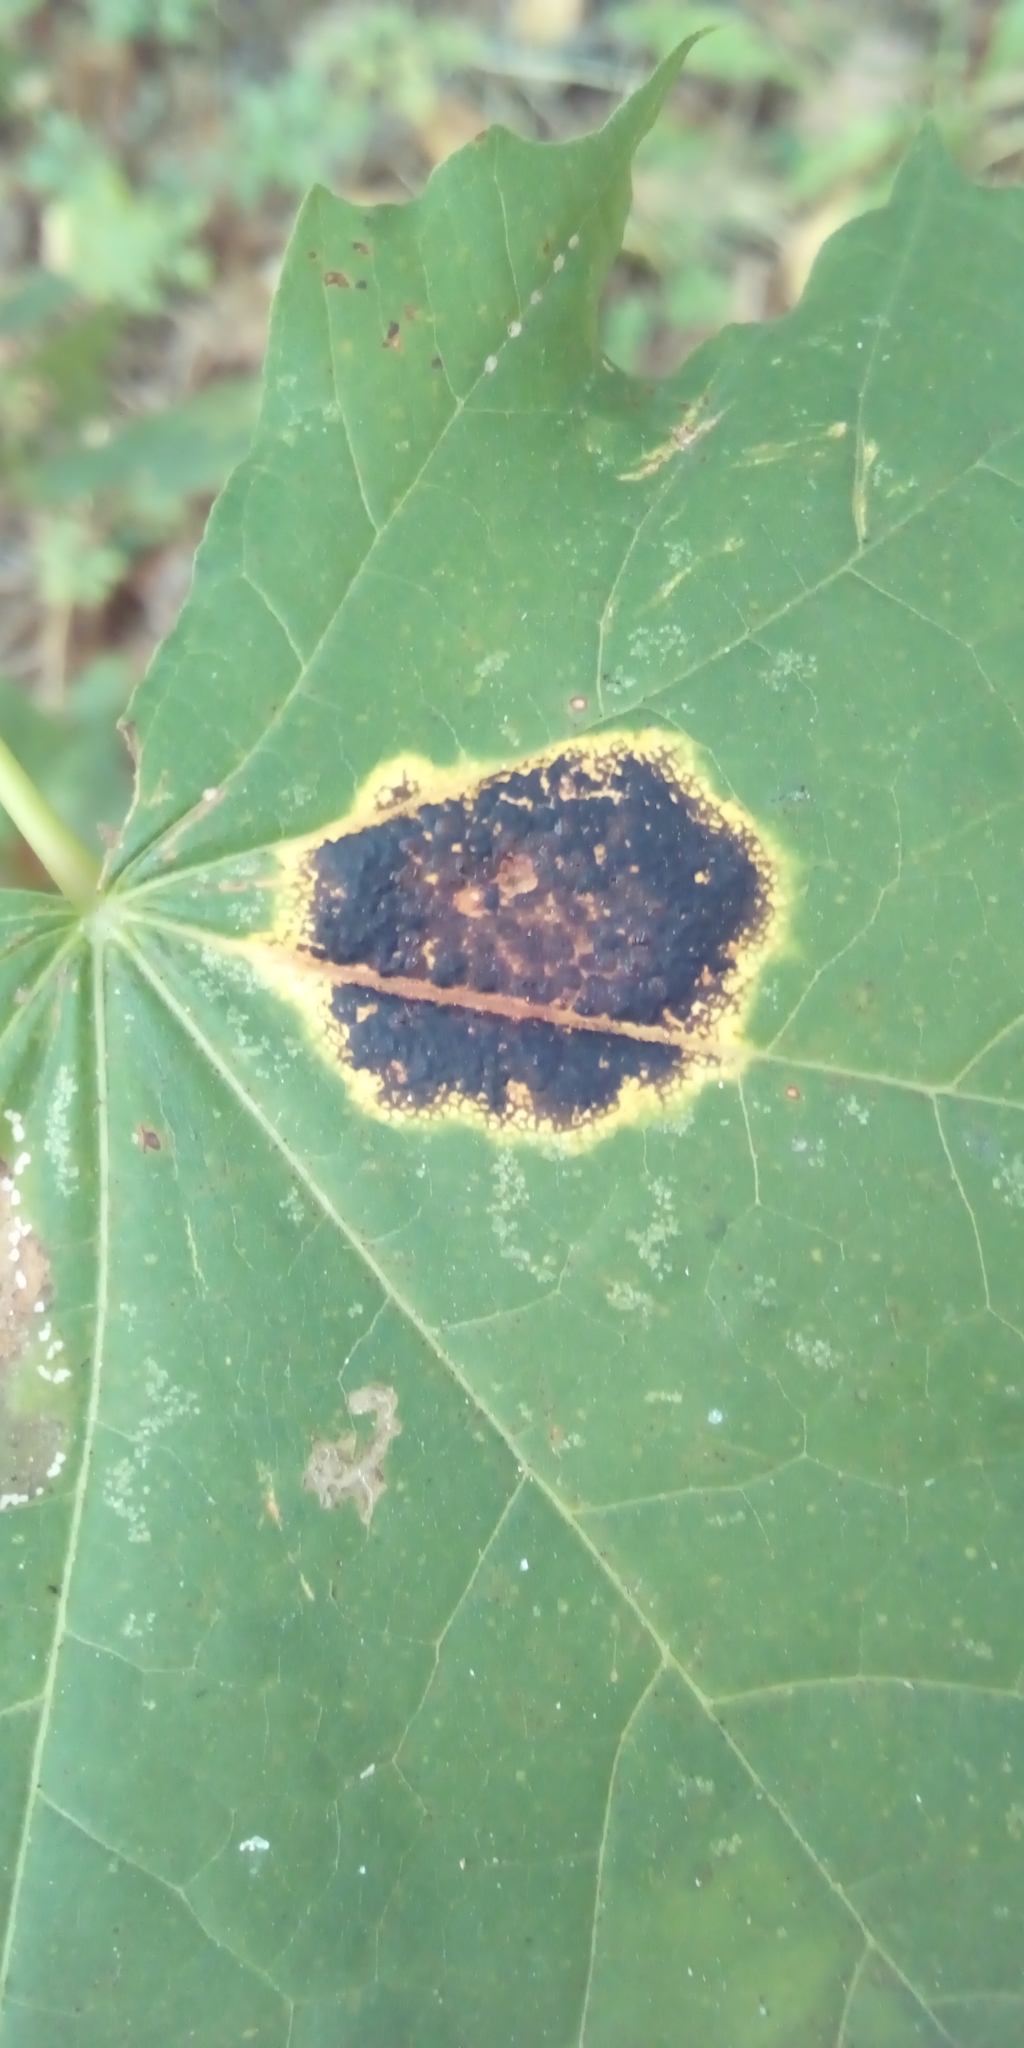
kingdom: Fungi
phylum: Ascomycota
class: Leotiomycetes
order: Rhytismatales
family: Rhytismataceae
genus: Rhytisma
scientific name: Rhytisma acerinum
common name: European tar spot
